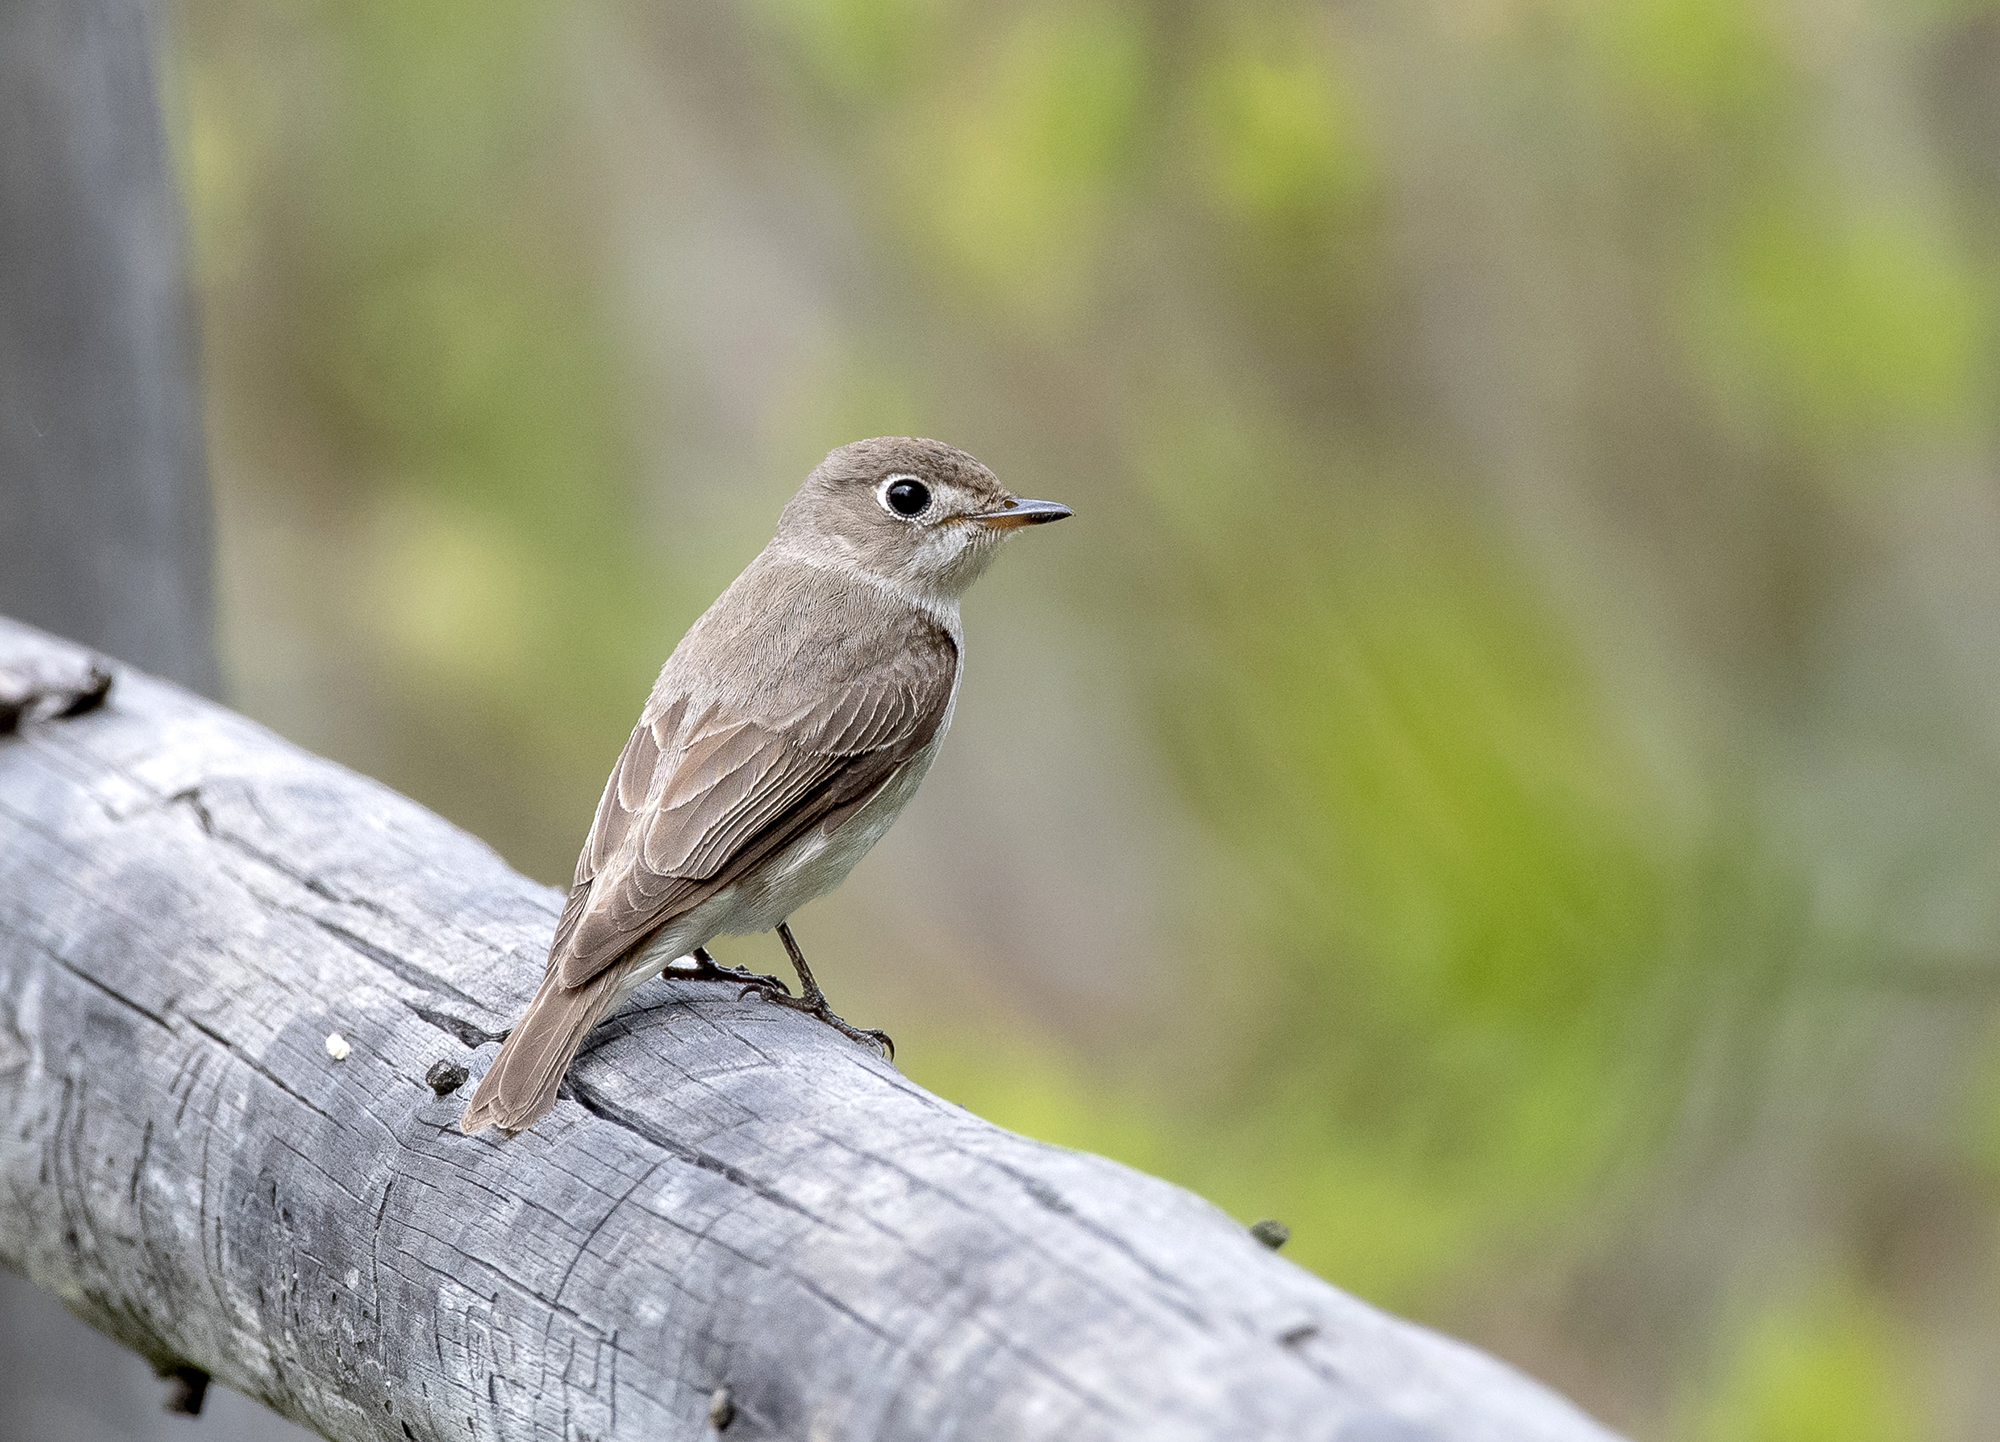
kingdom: Animalia
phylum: Chordata
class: Aves
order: Passeriformes
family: Muscicapidae
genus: Muscicapa
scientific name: Muscicapa latirostris
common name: Asian brown flycatcher
